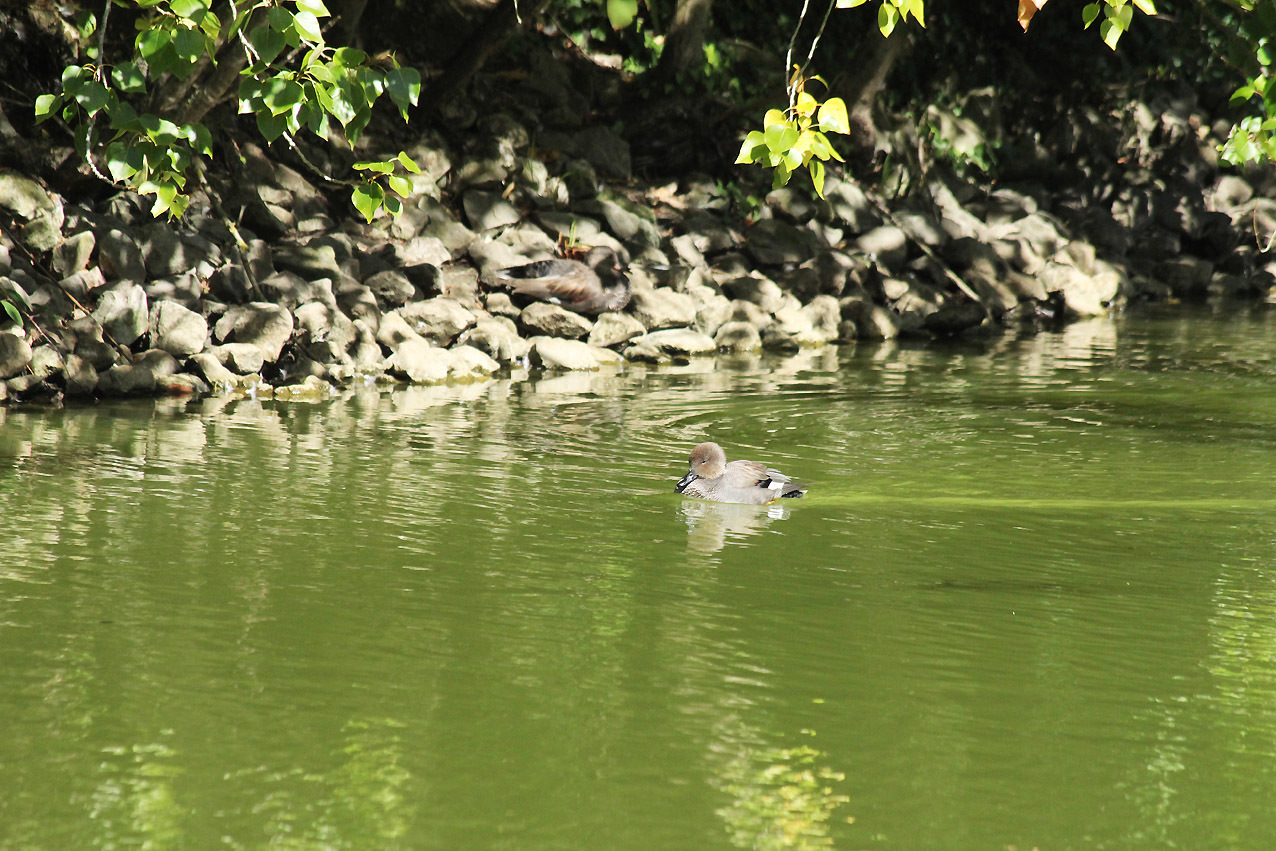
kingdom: Animalia
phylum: Chordata
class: Aves
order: Anseriformes
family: Anatidae
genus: Mareca
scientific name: Mareca strepera
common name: Gadwall
